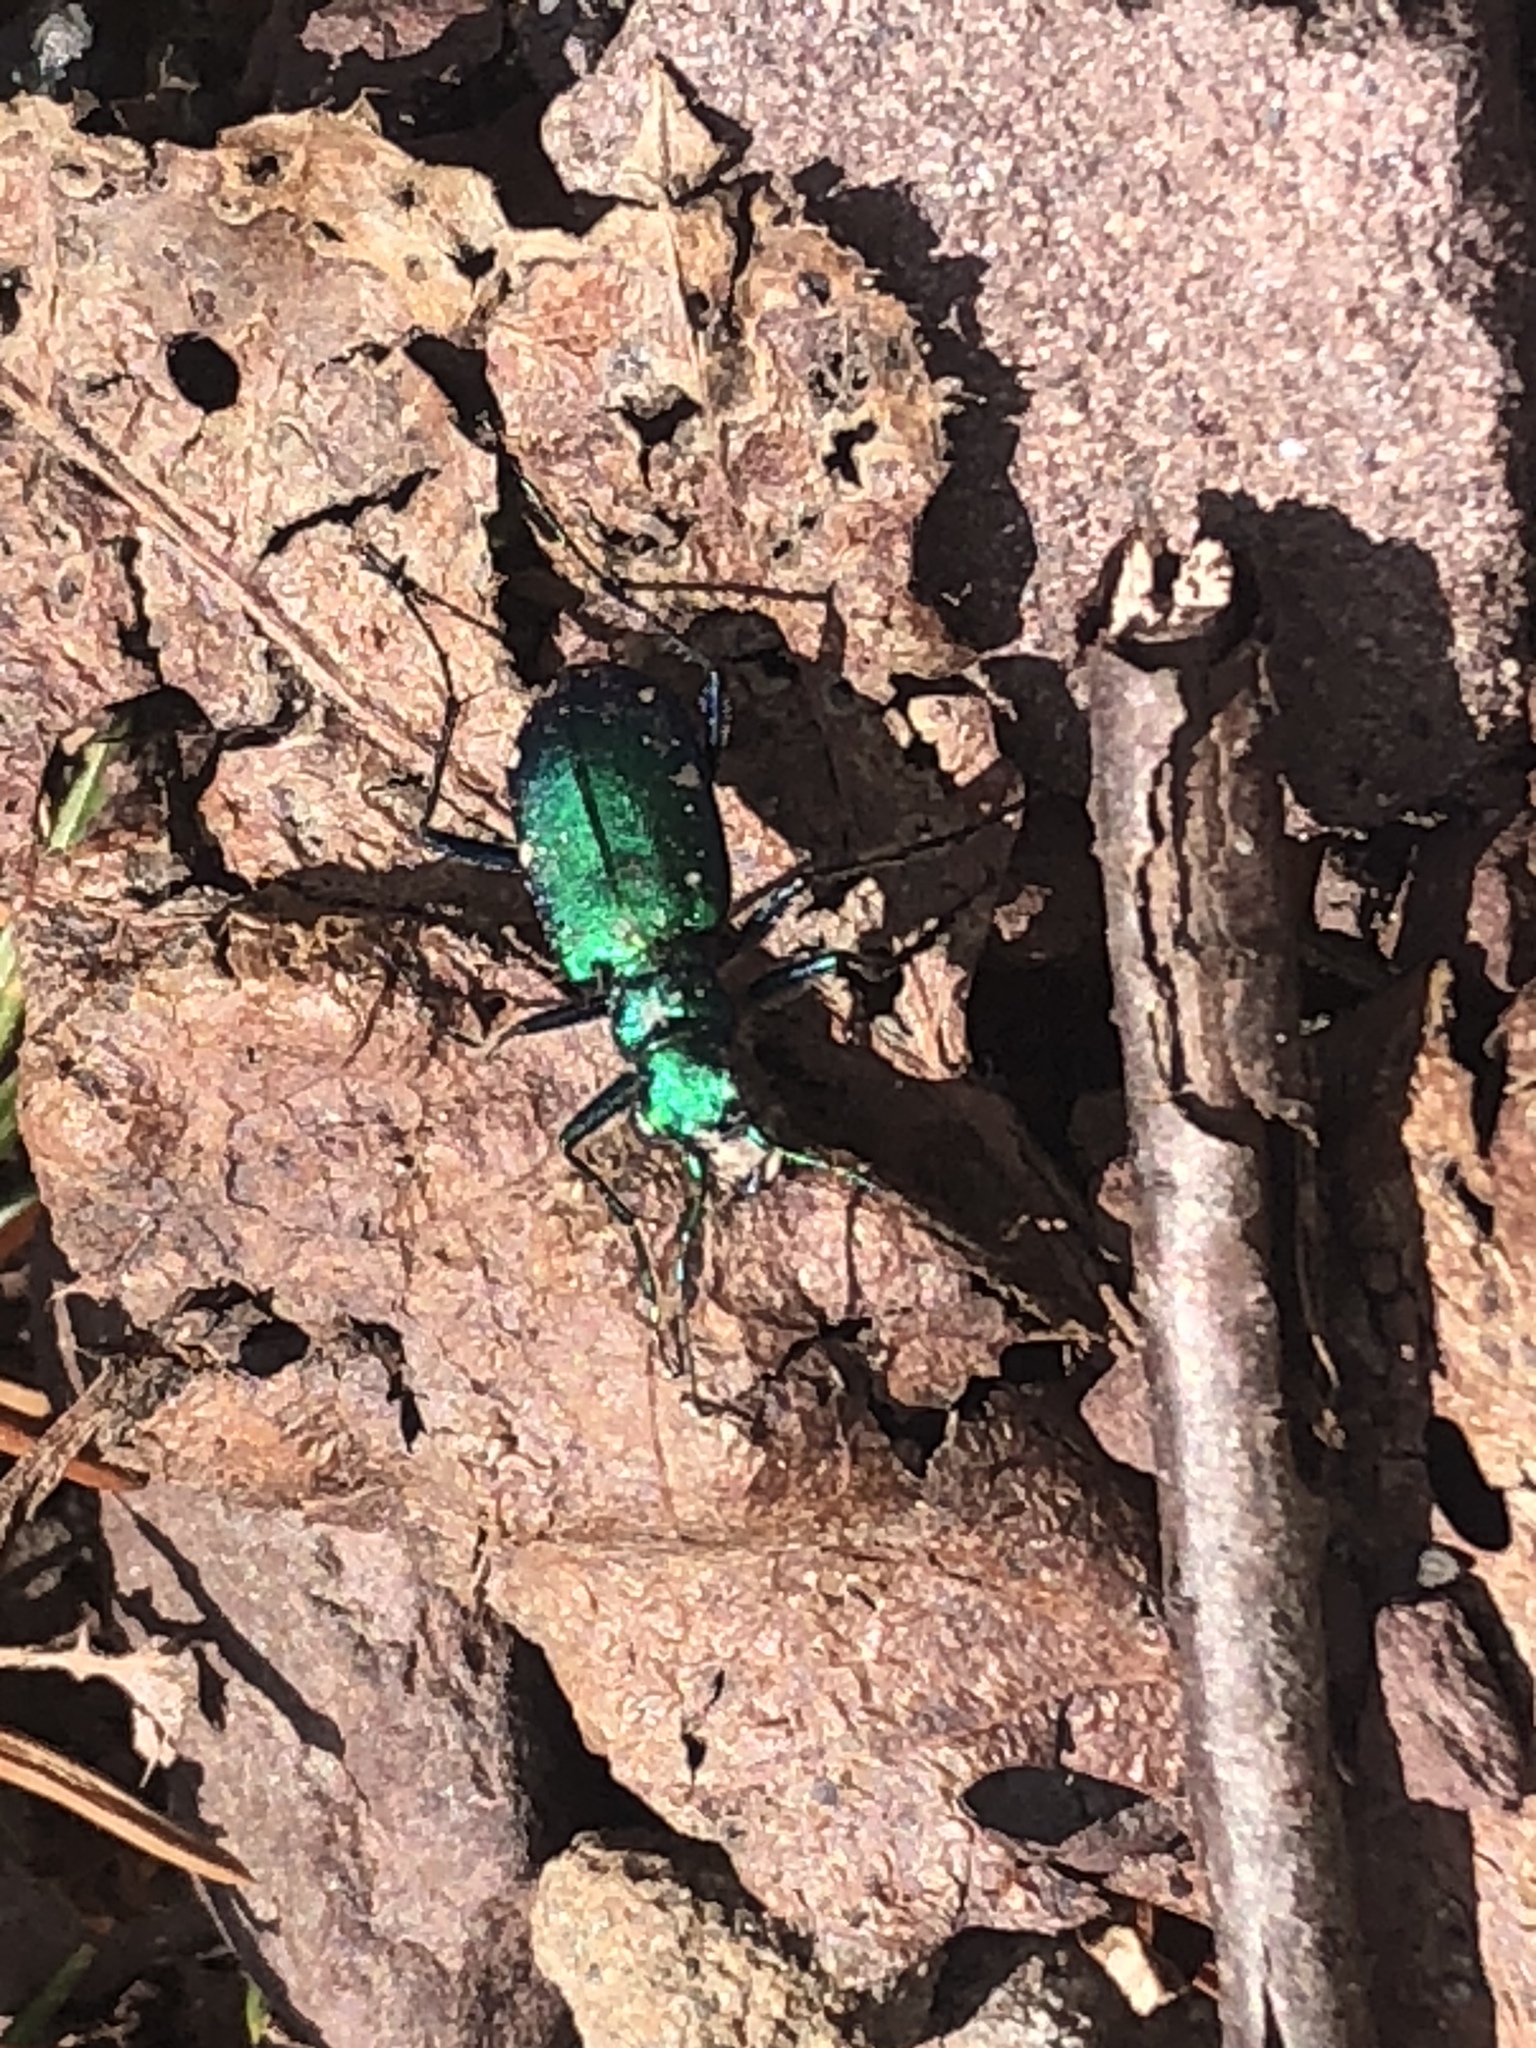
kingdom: Animalia
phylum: Arthropoda
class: Insecta
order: Coleoptera
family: Carabidae
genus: Cicindela
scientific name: Cicindela sexguttata
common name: Six-spotted tiger beetle
